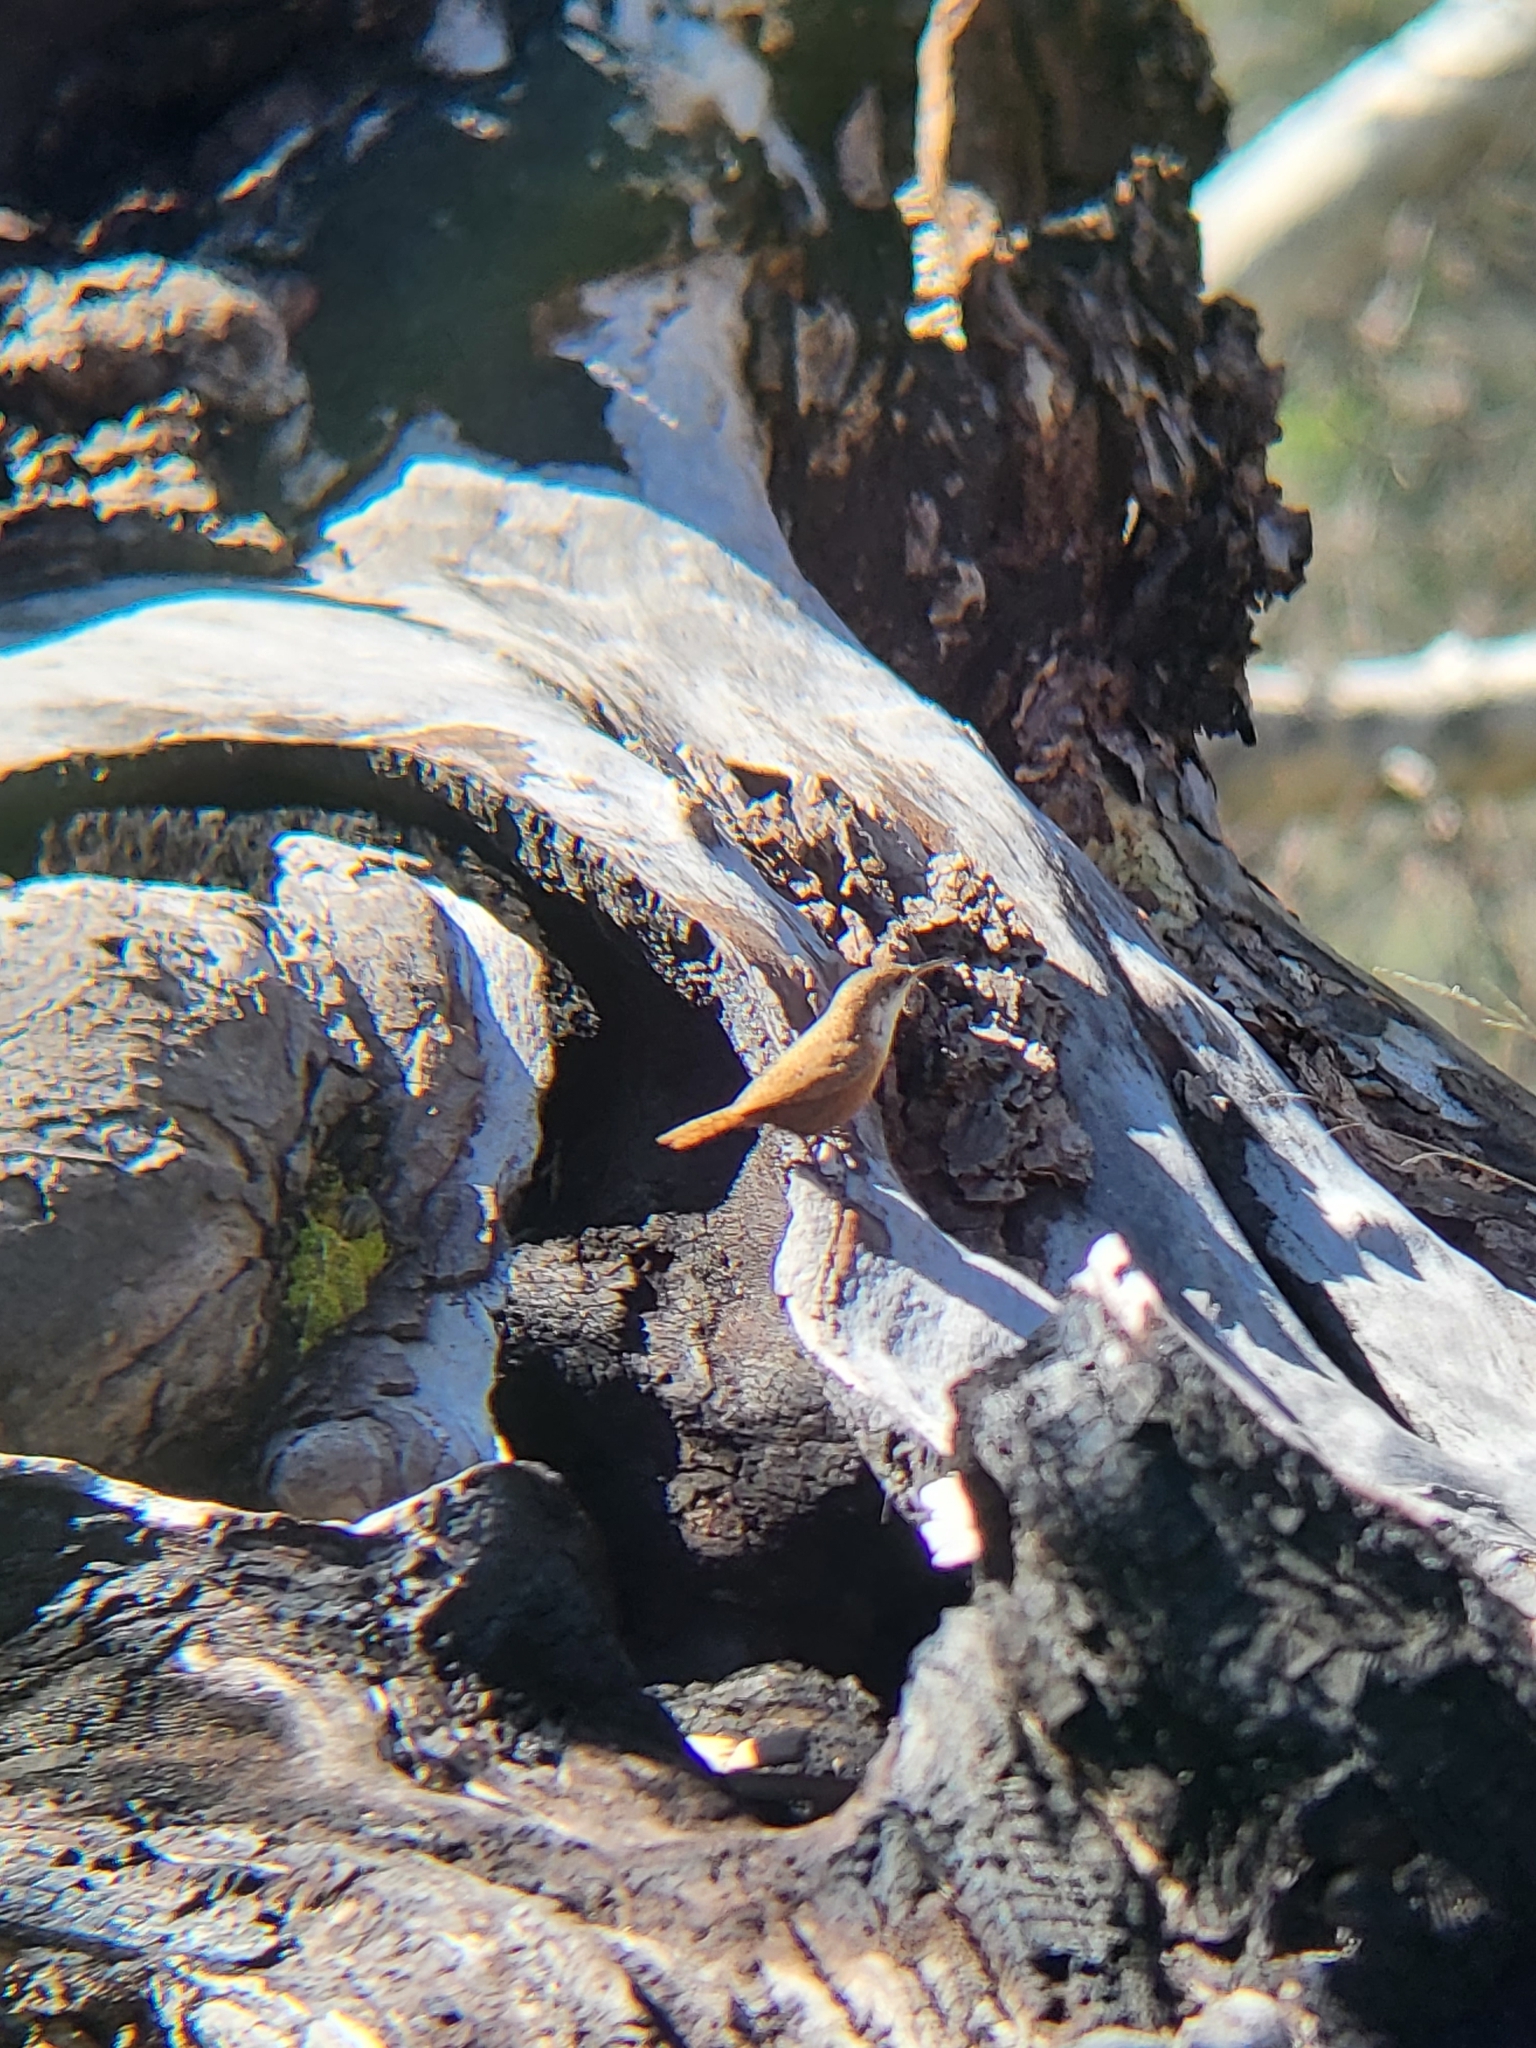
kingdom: Animalia
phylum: Chordata
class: Aves
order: Passeriformes
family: Troglodytidae
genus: Catherpes
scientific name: Catherpes mexicanus
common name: Canyon wren
